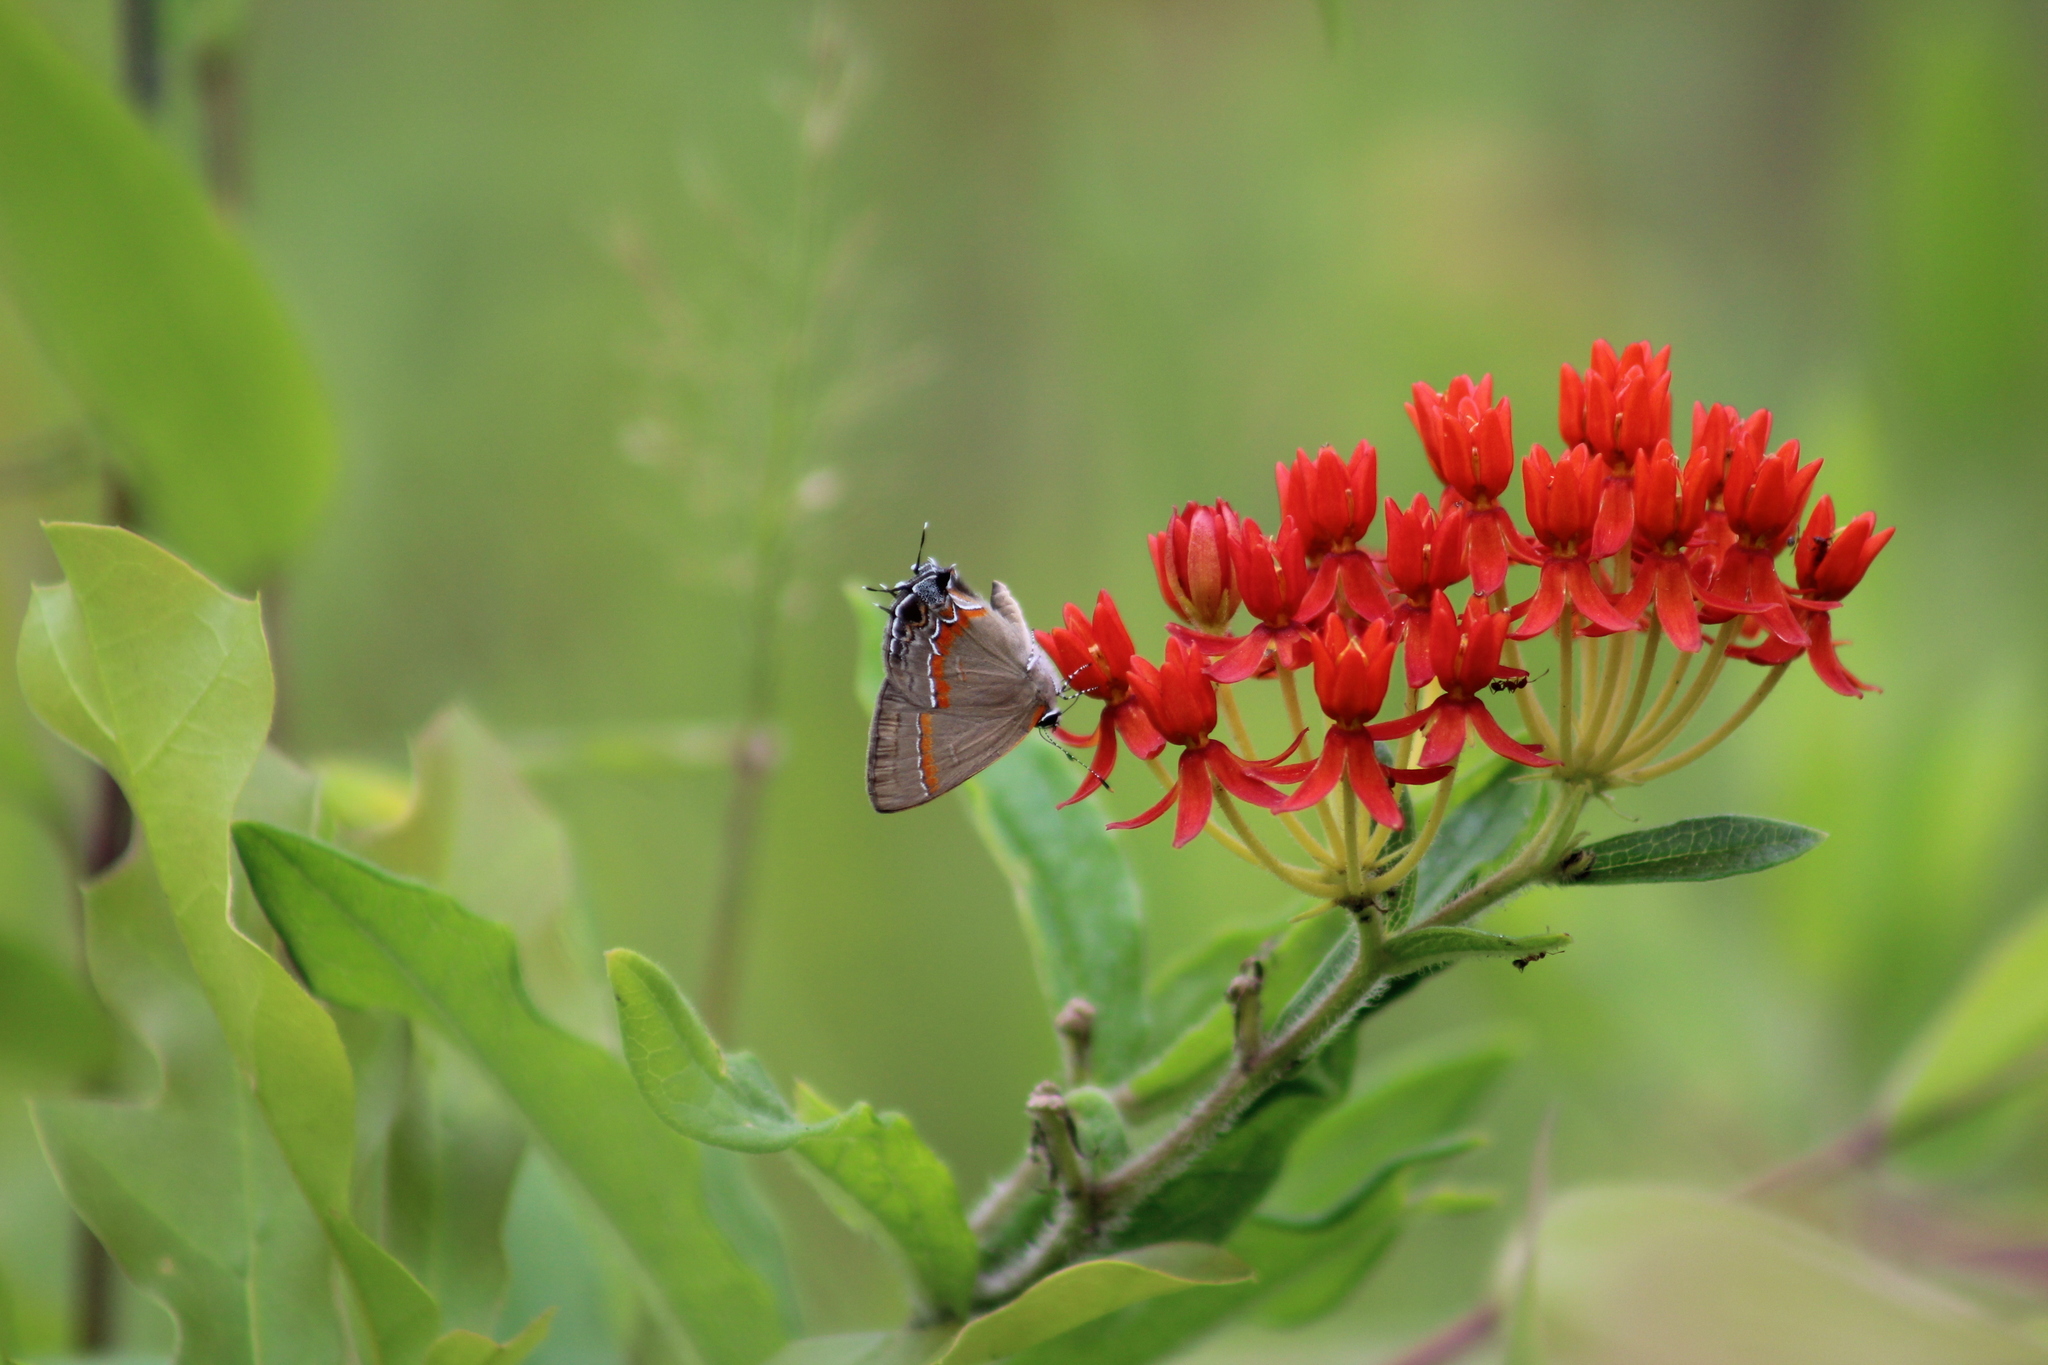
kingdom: Animalia
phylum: Arthropoda
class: Insecta
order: Lepidoptera
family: Lycaenidae
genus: Calycopis
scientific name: Calycopis cecrops
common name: Red-banded hairstreak
